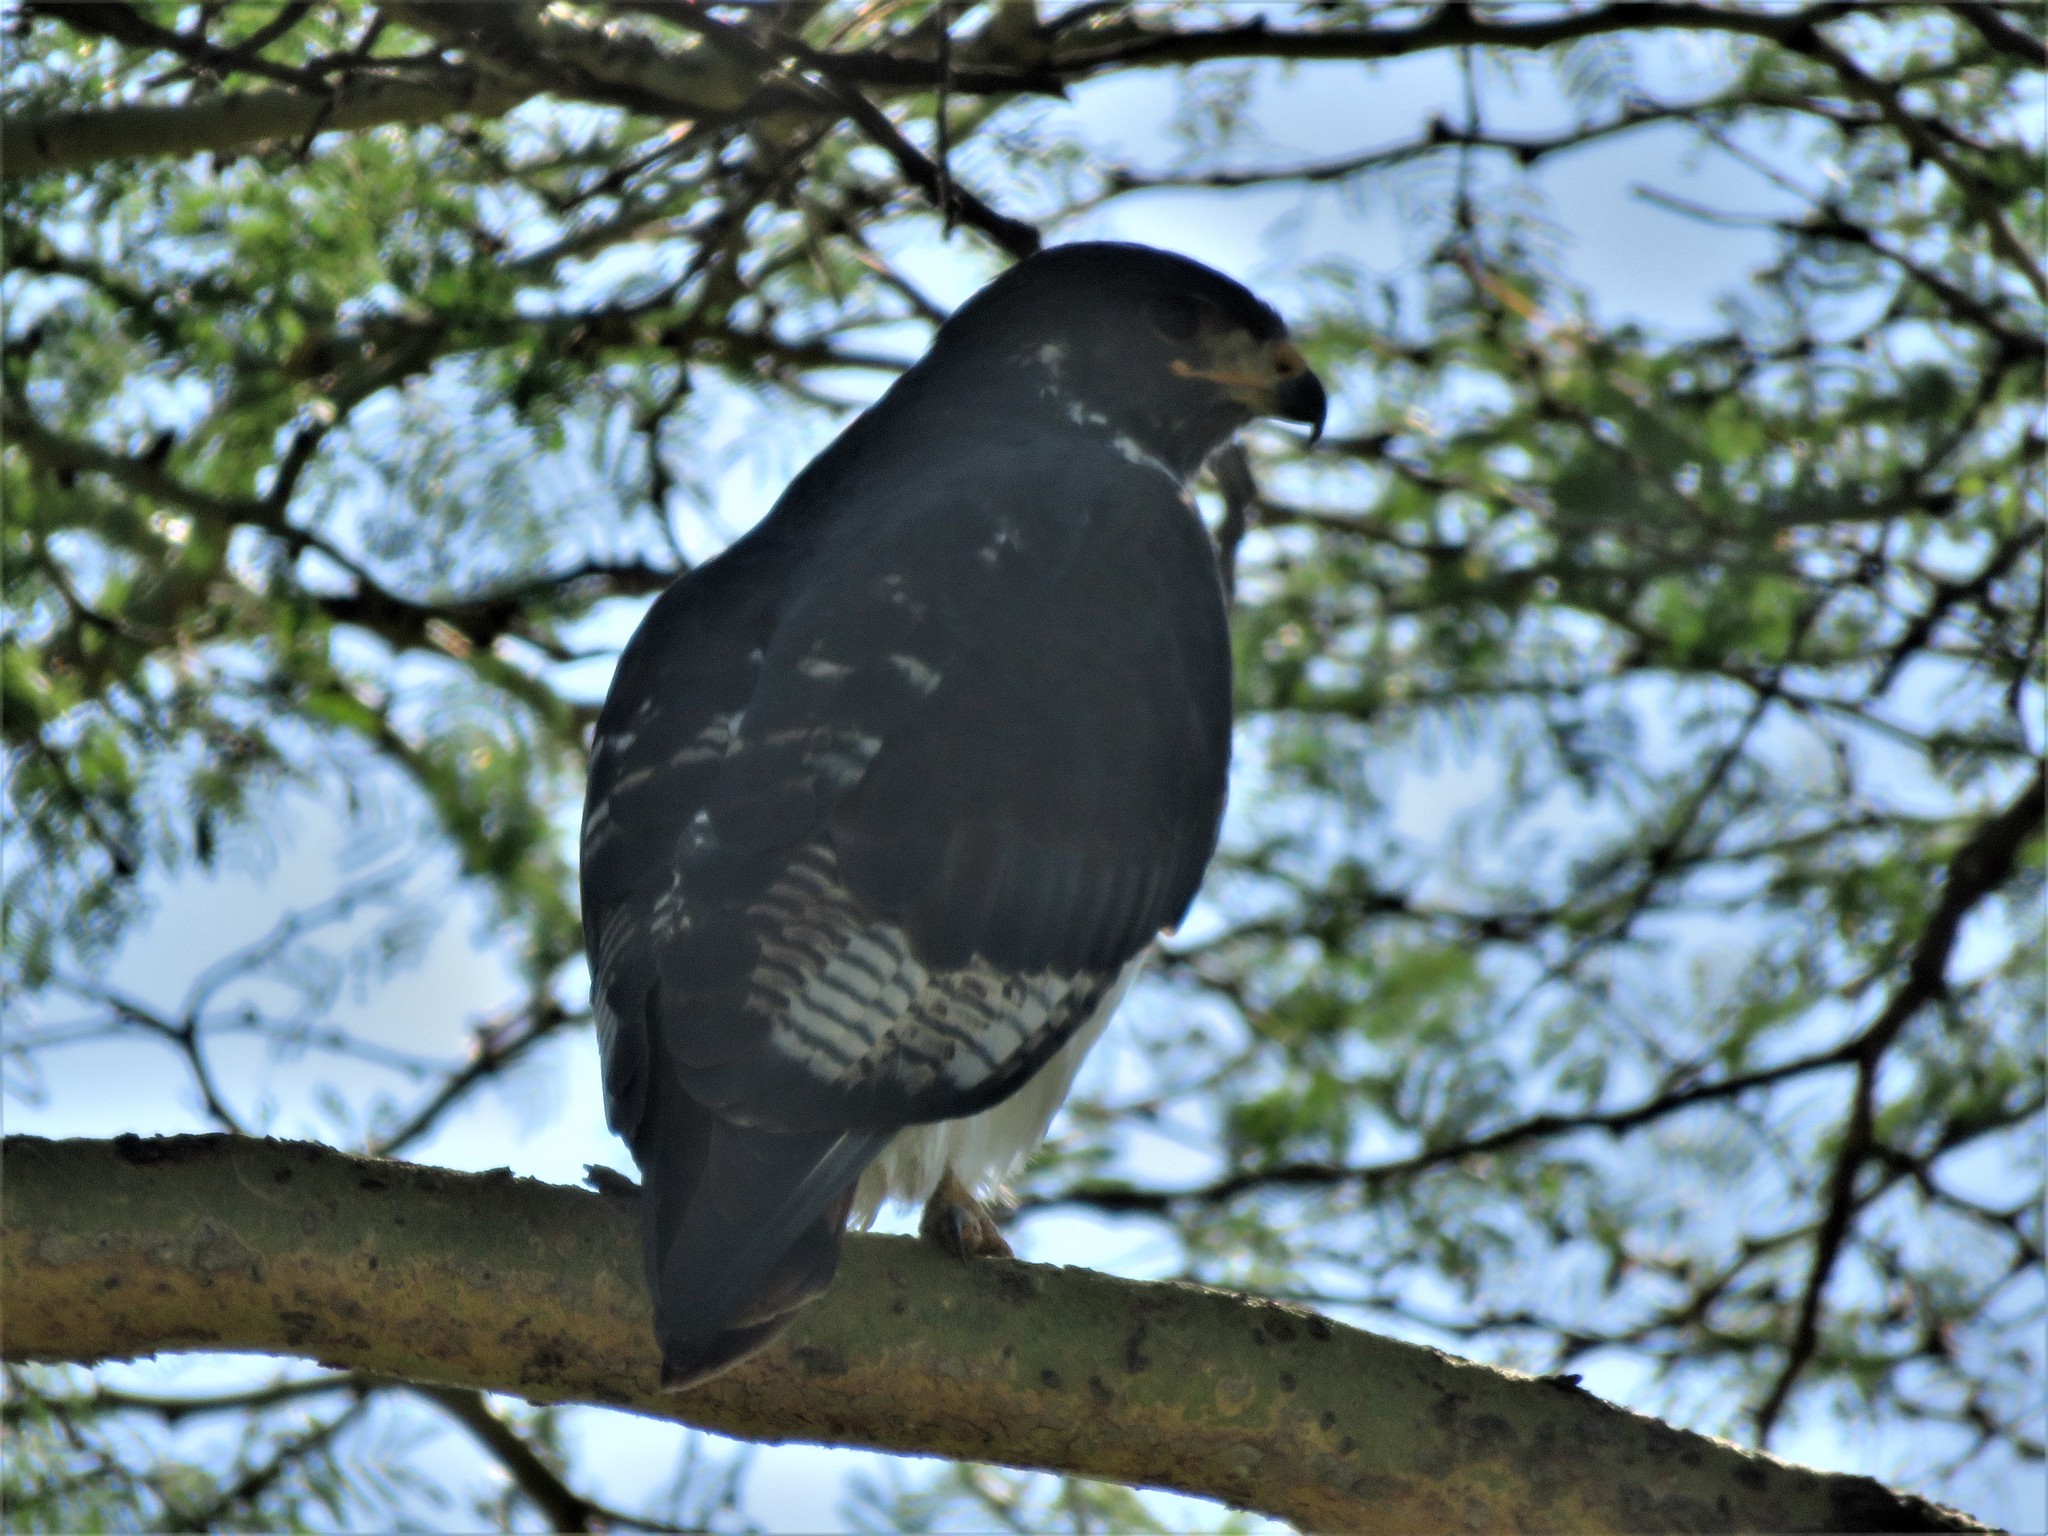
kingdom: Animalia
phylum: Chordata
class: Aves
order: Accipitriformes
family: Accipitridae
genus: Buteo
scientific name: Buteo augur
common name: Augur buzzard
